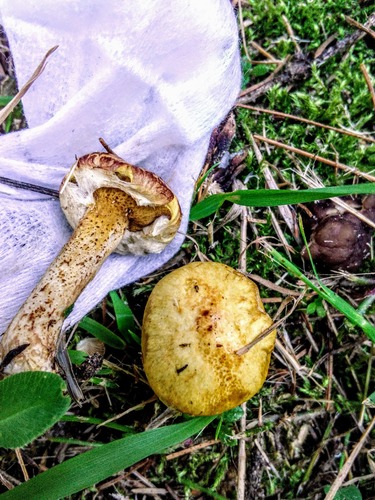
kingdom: Fungi
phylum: Basidiomycota
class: Agaricomycetes
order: Boletales
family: Suillaceae
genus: Suillus
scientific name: Suillus americanus
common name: Chicken fat mushroom
